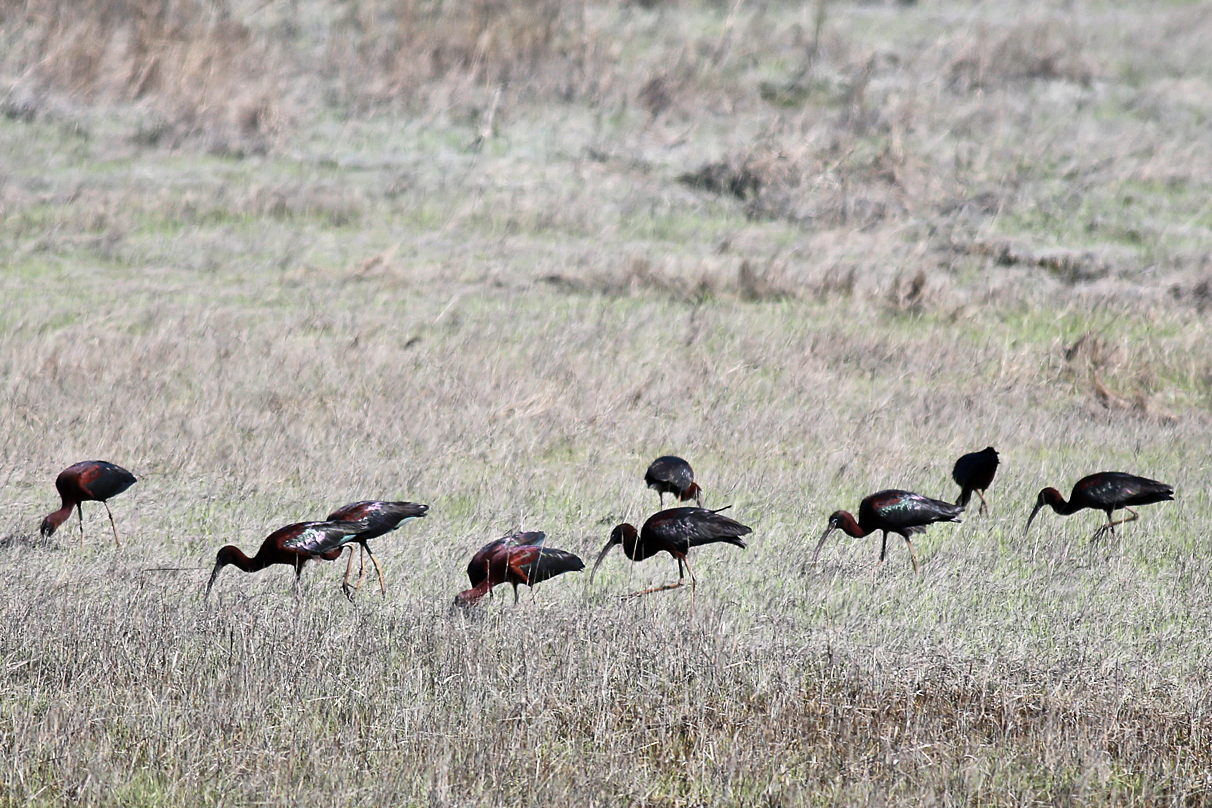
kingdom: Animalia
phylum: Chordata
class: Aves
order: Pelecaniformes
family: Threskiornithidae
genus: Plegadis
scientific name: Plegadis falcinellus
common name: Glossy ibis
